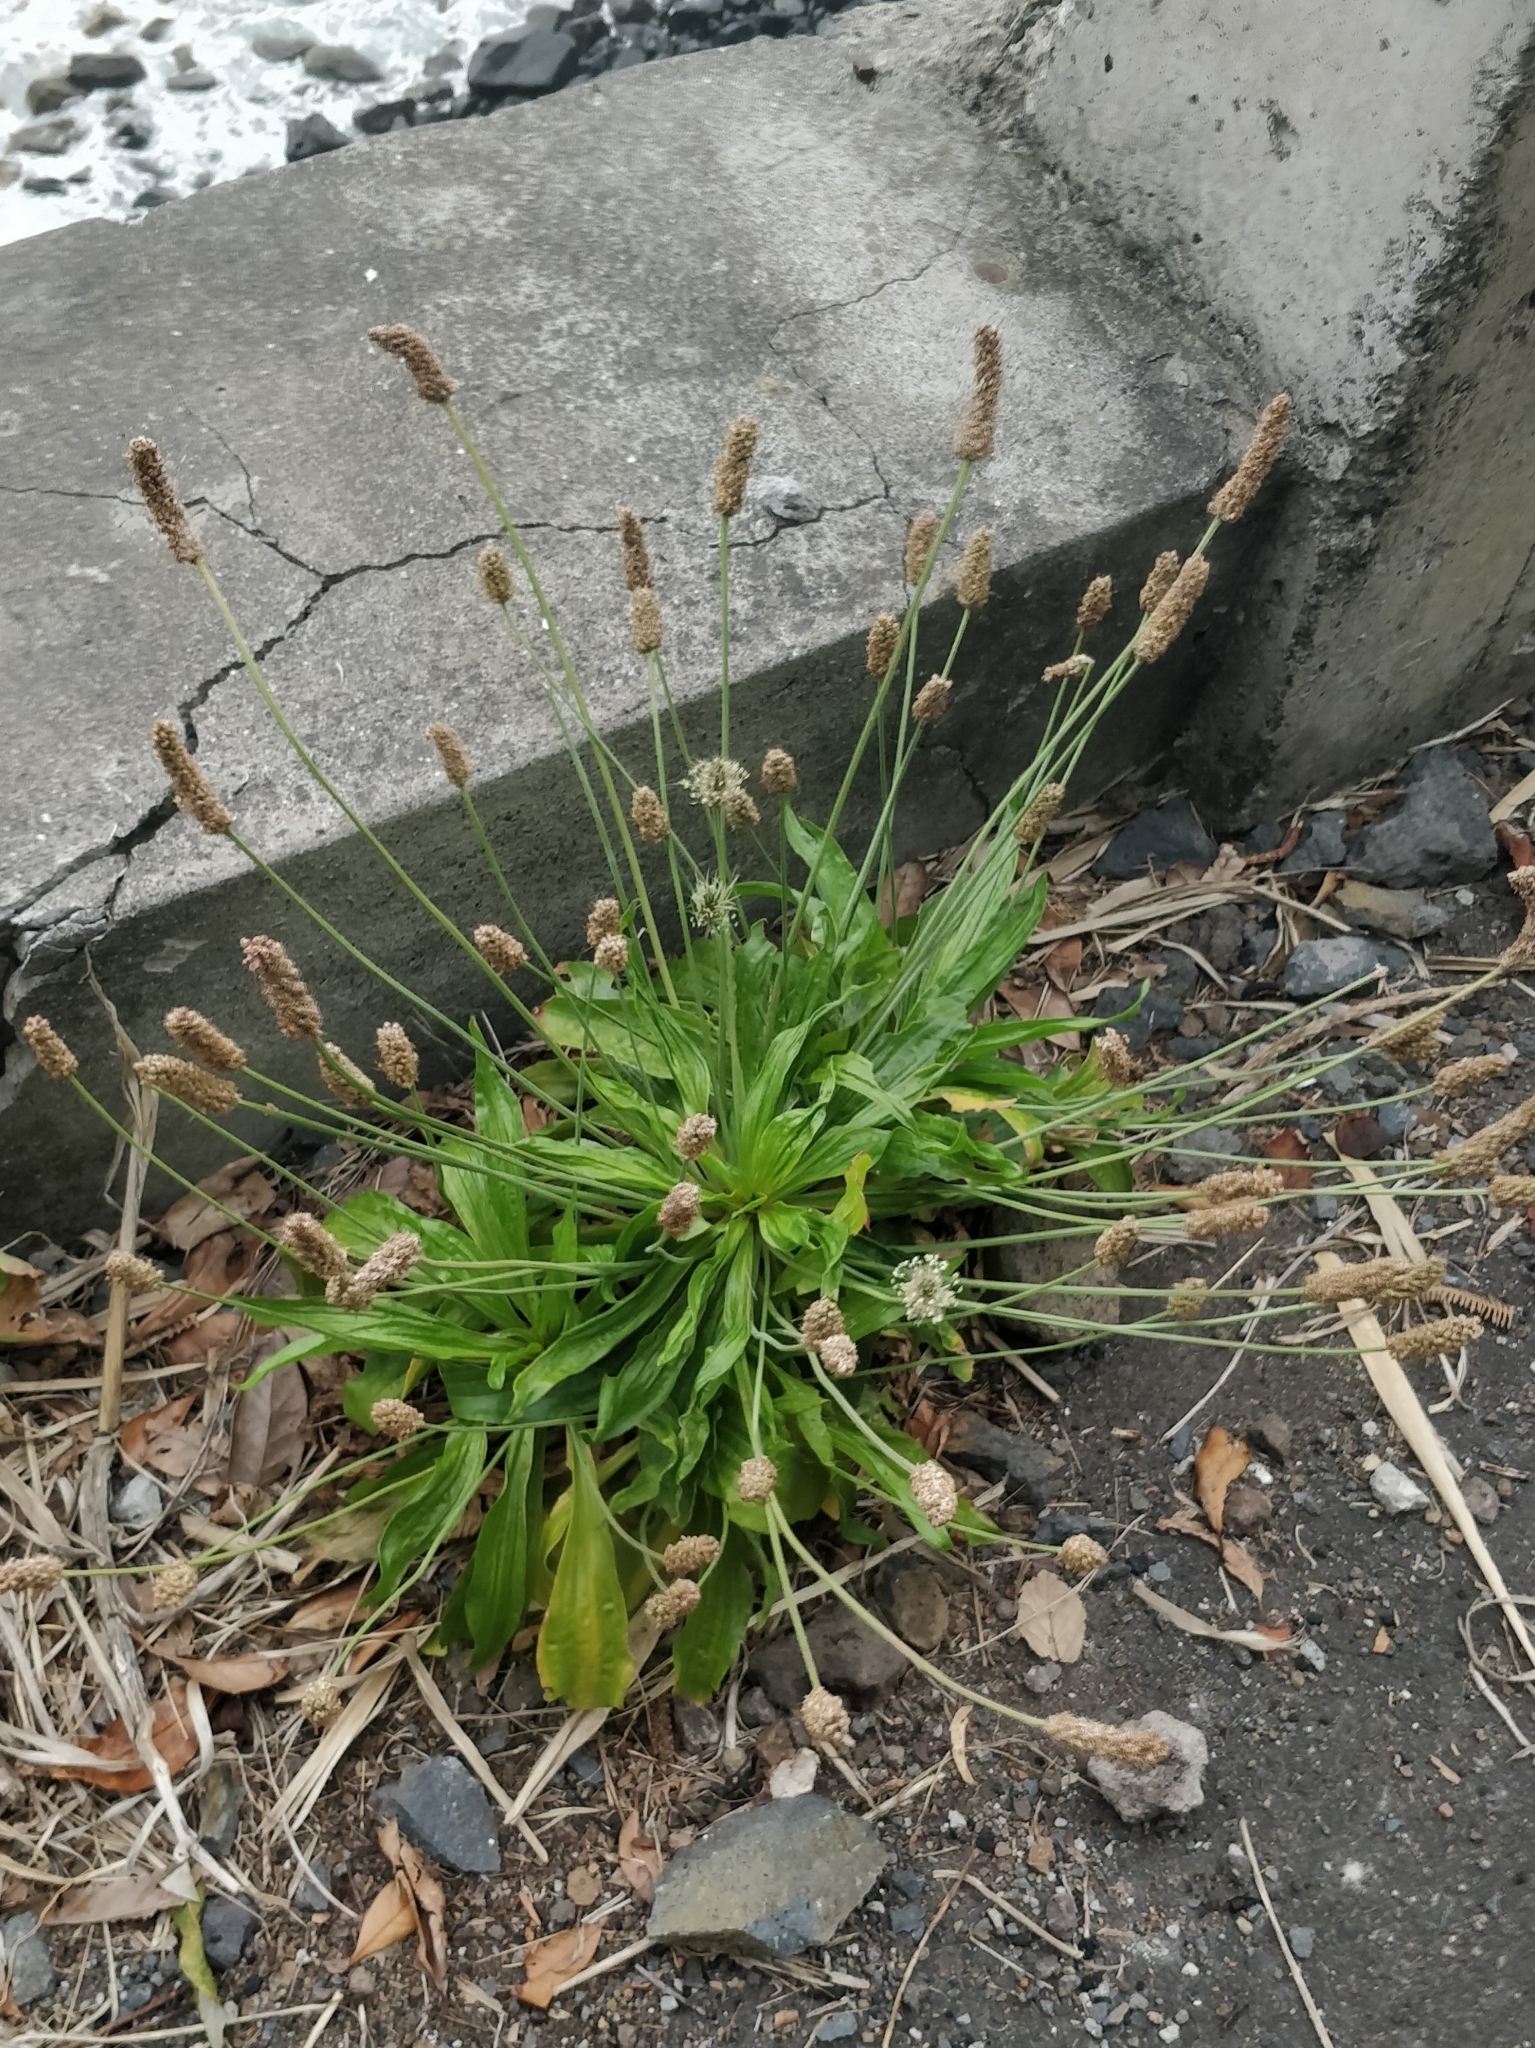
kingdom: Plantae
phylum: Tracheophyta
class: Magnoliopsida
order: Lamiales
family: Plantaginaceae
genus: Plantago
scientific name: Plantago lanceolata
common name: Ribwort plantain
